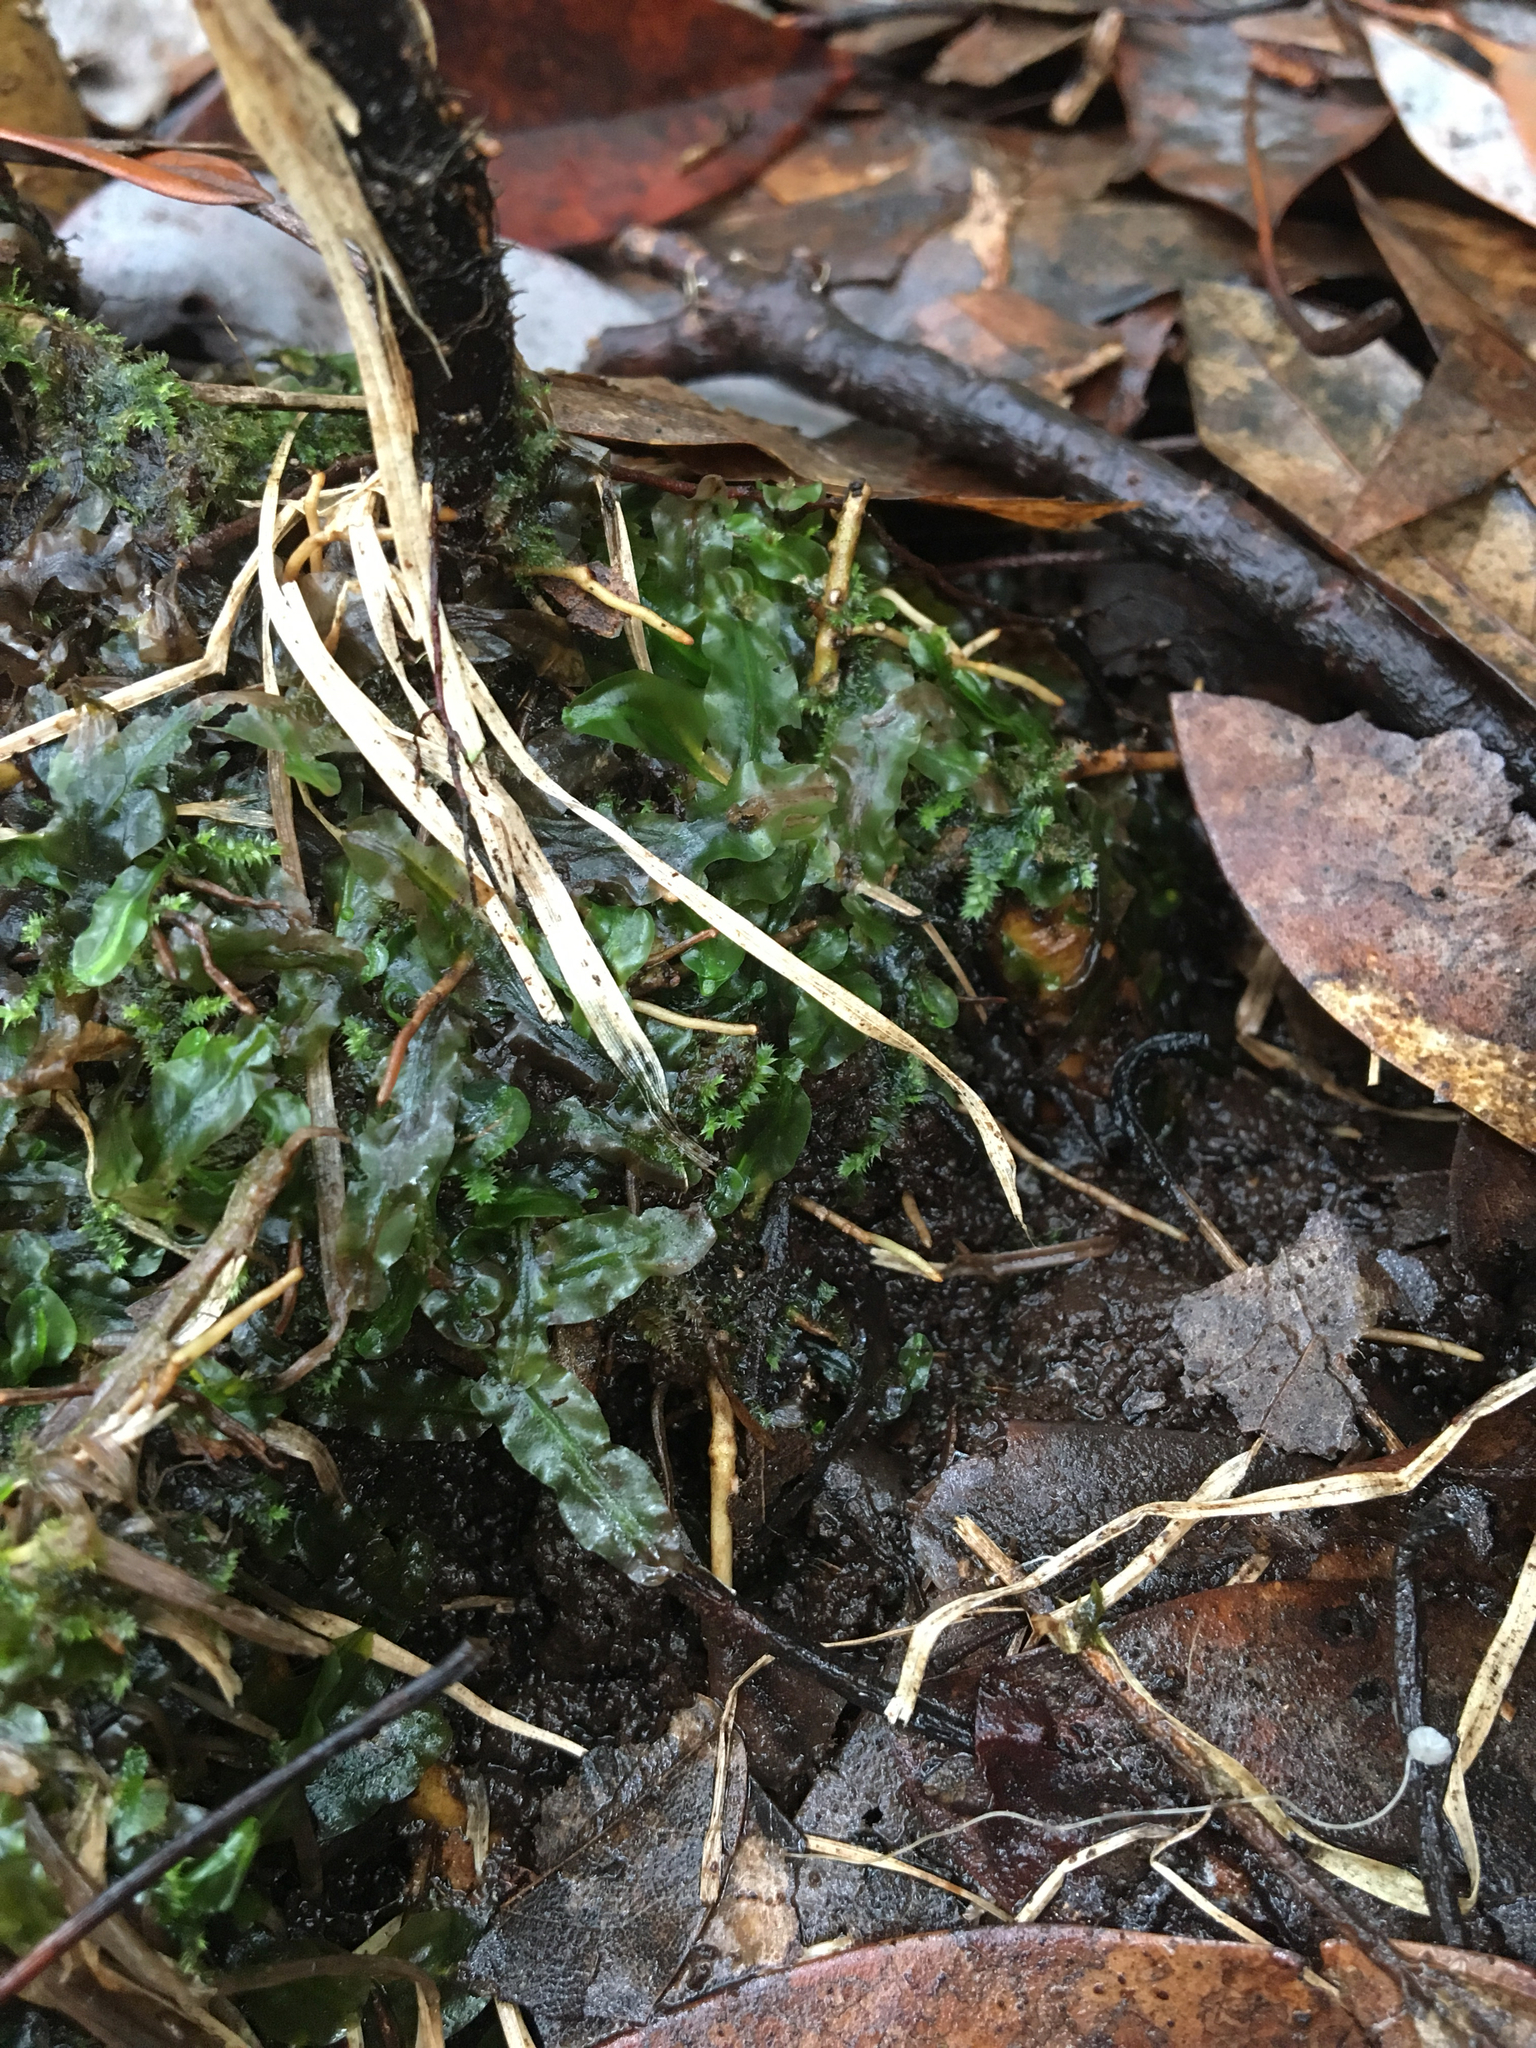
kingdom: Plantae
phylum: Marchantiophyta
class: Jungermanniopsida
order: Pallaviciniales
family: Pallaviciniaceae
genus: Pallavicinia
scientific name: Pallavicinia lyellii
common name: Veilwort
